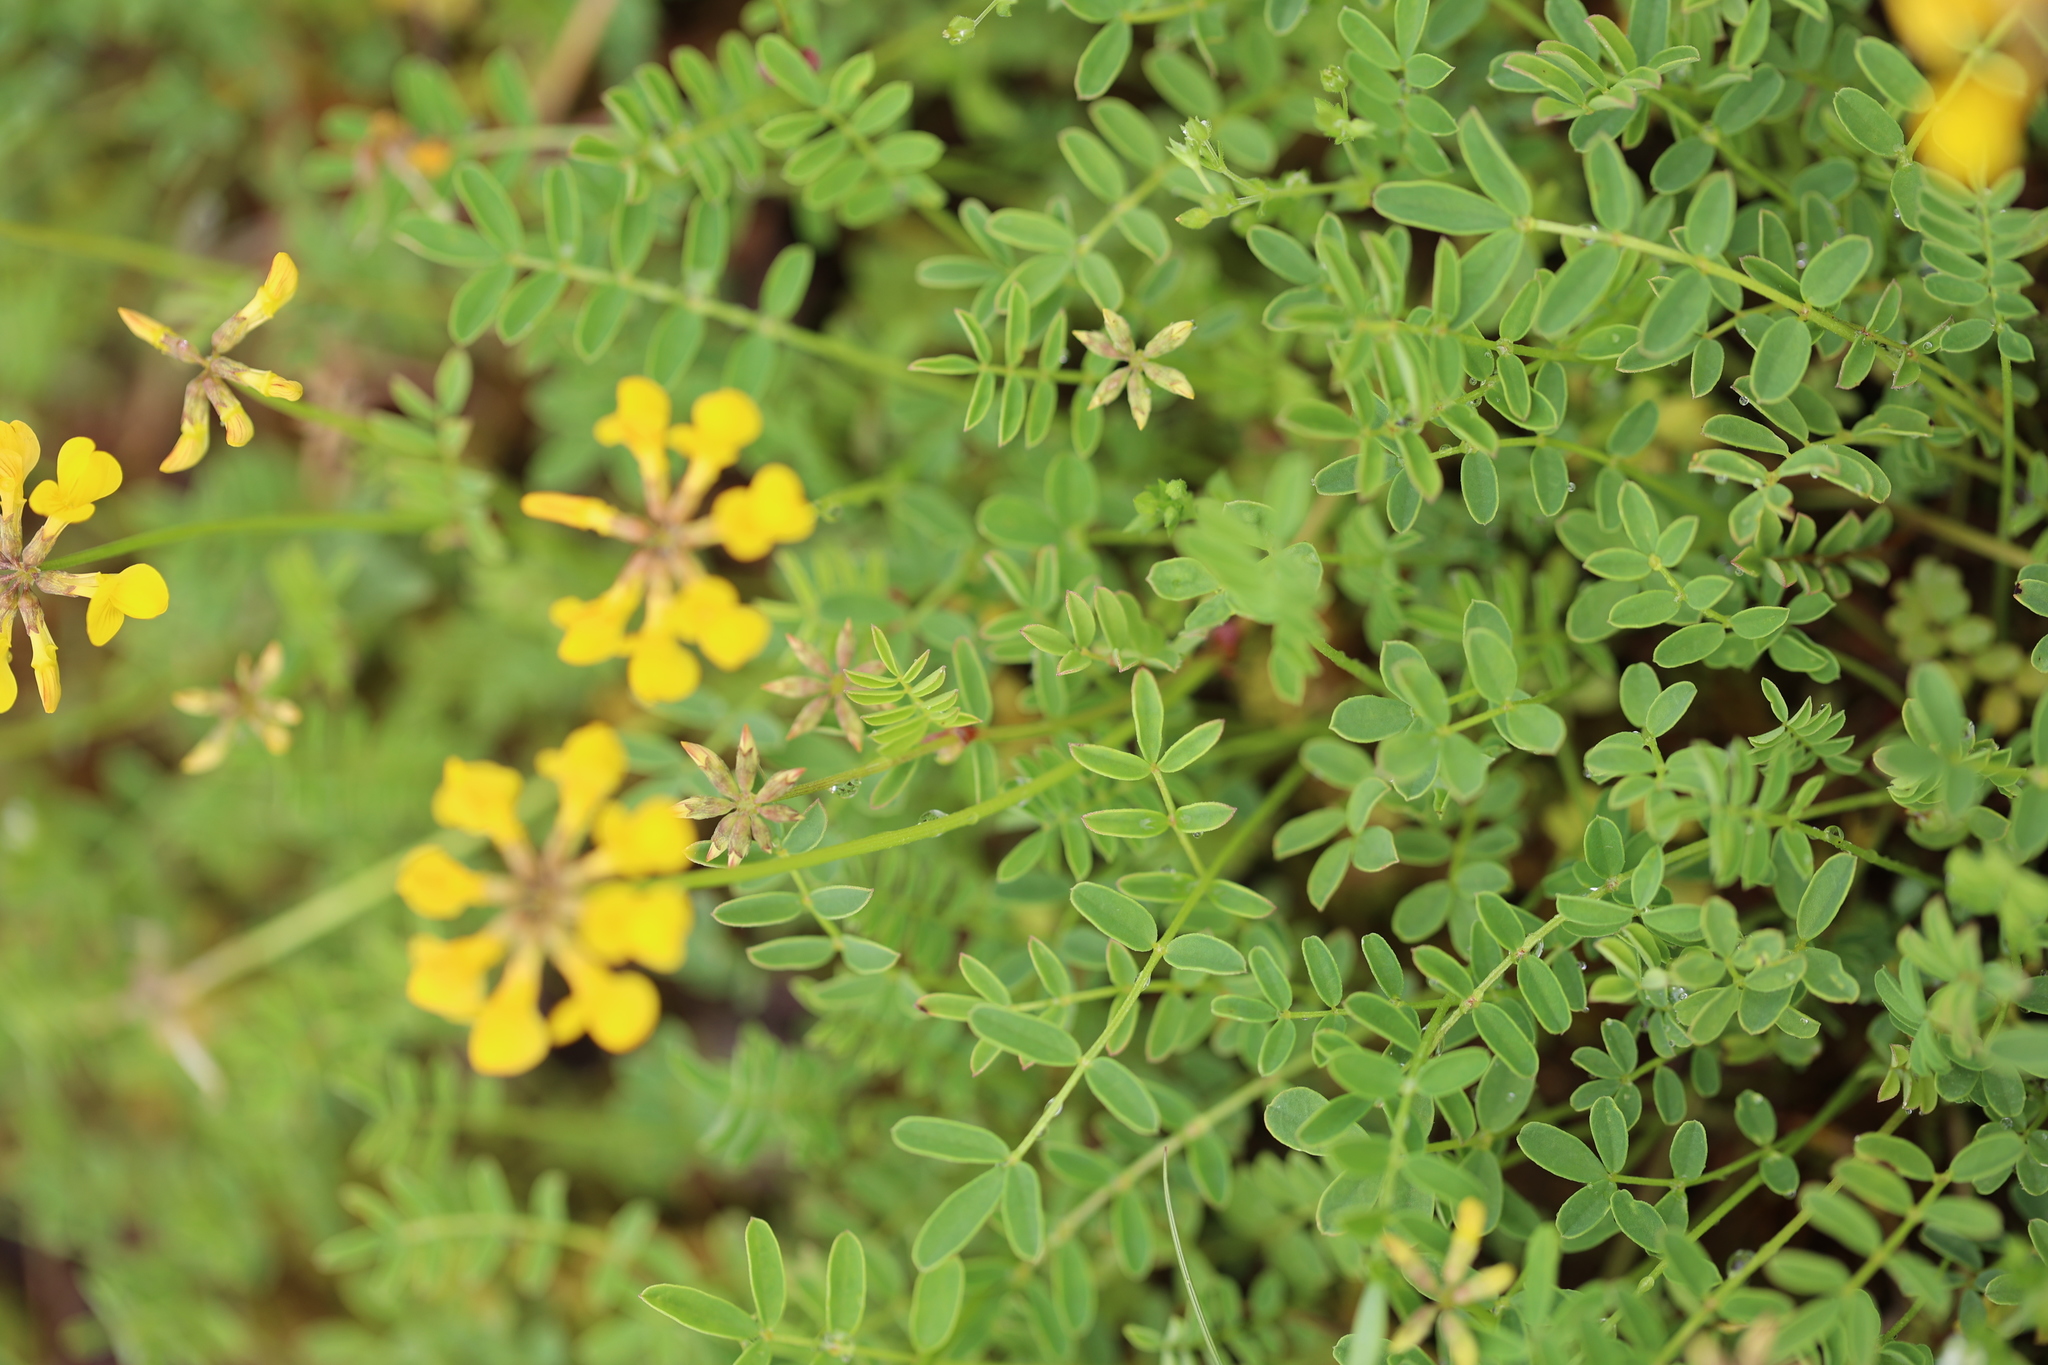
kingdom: Plantae
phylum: Tracheophyta
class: Magnoliopsida
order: Fabales
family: Fabaceae
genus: Hippocrepis
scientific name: Hippocrepis comosa
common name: Horseshoe vetch
